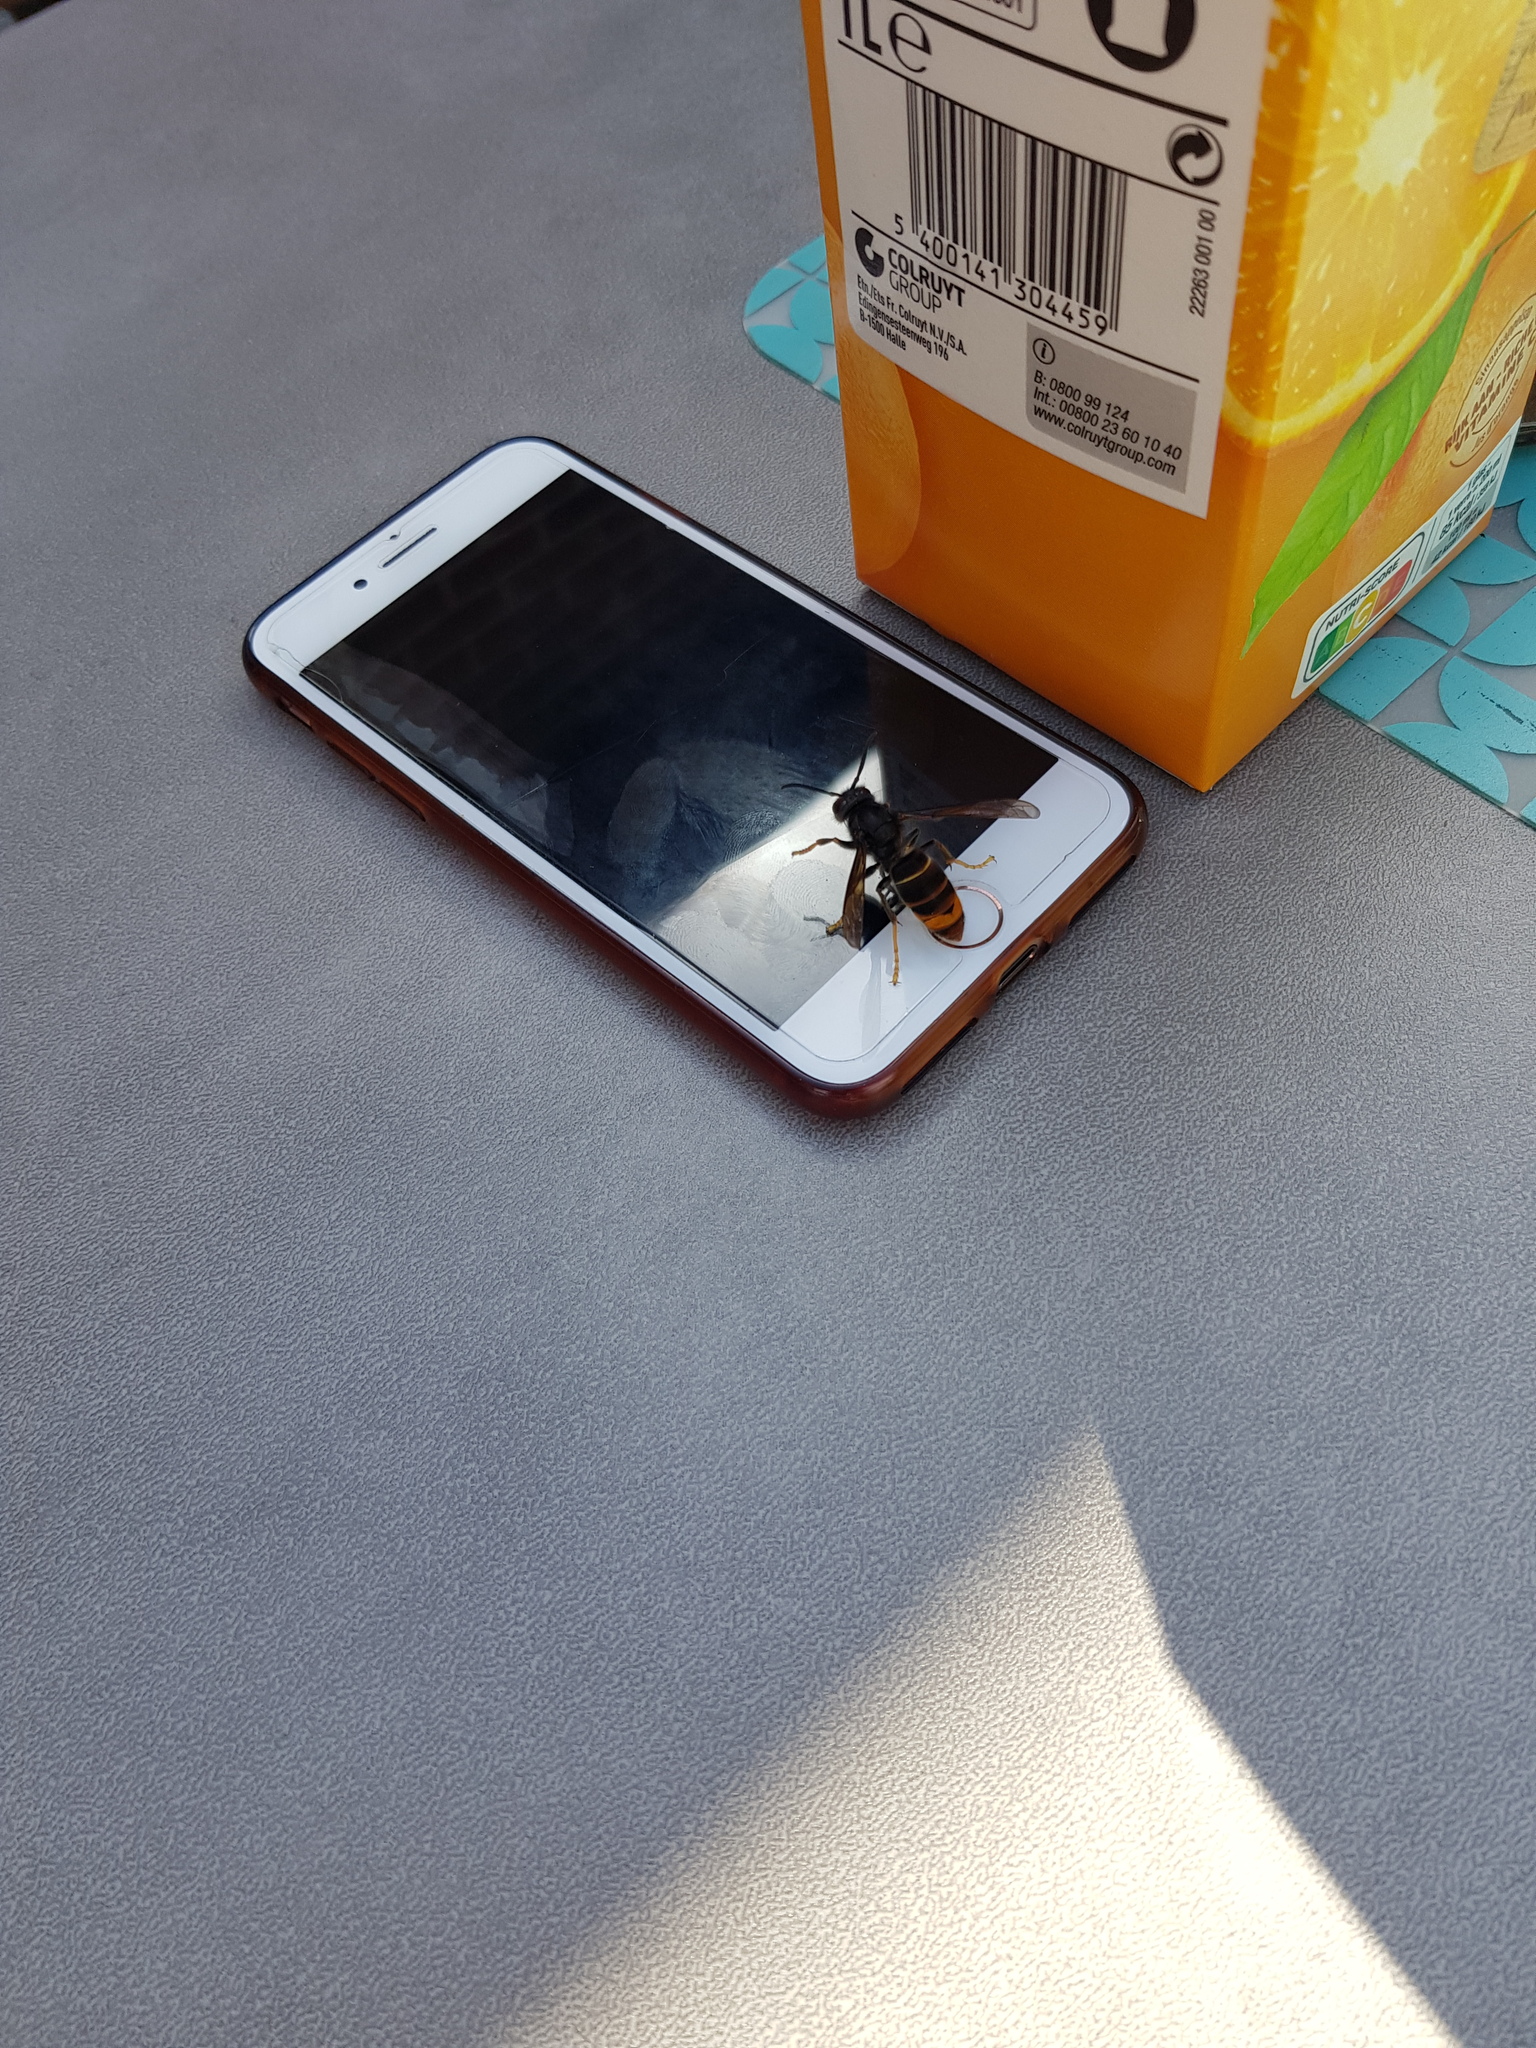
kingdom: Animalia
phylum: Arthropoda
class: Insecta
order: Hymenoptera
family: Vespidae
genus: Vespa
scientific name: Vespa velutina
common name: Asian hornet
